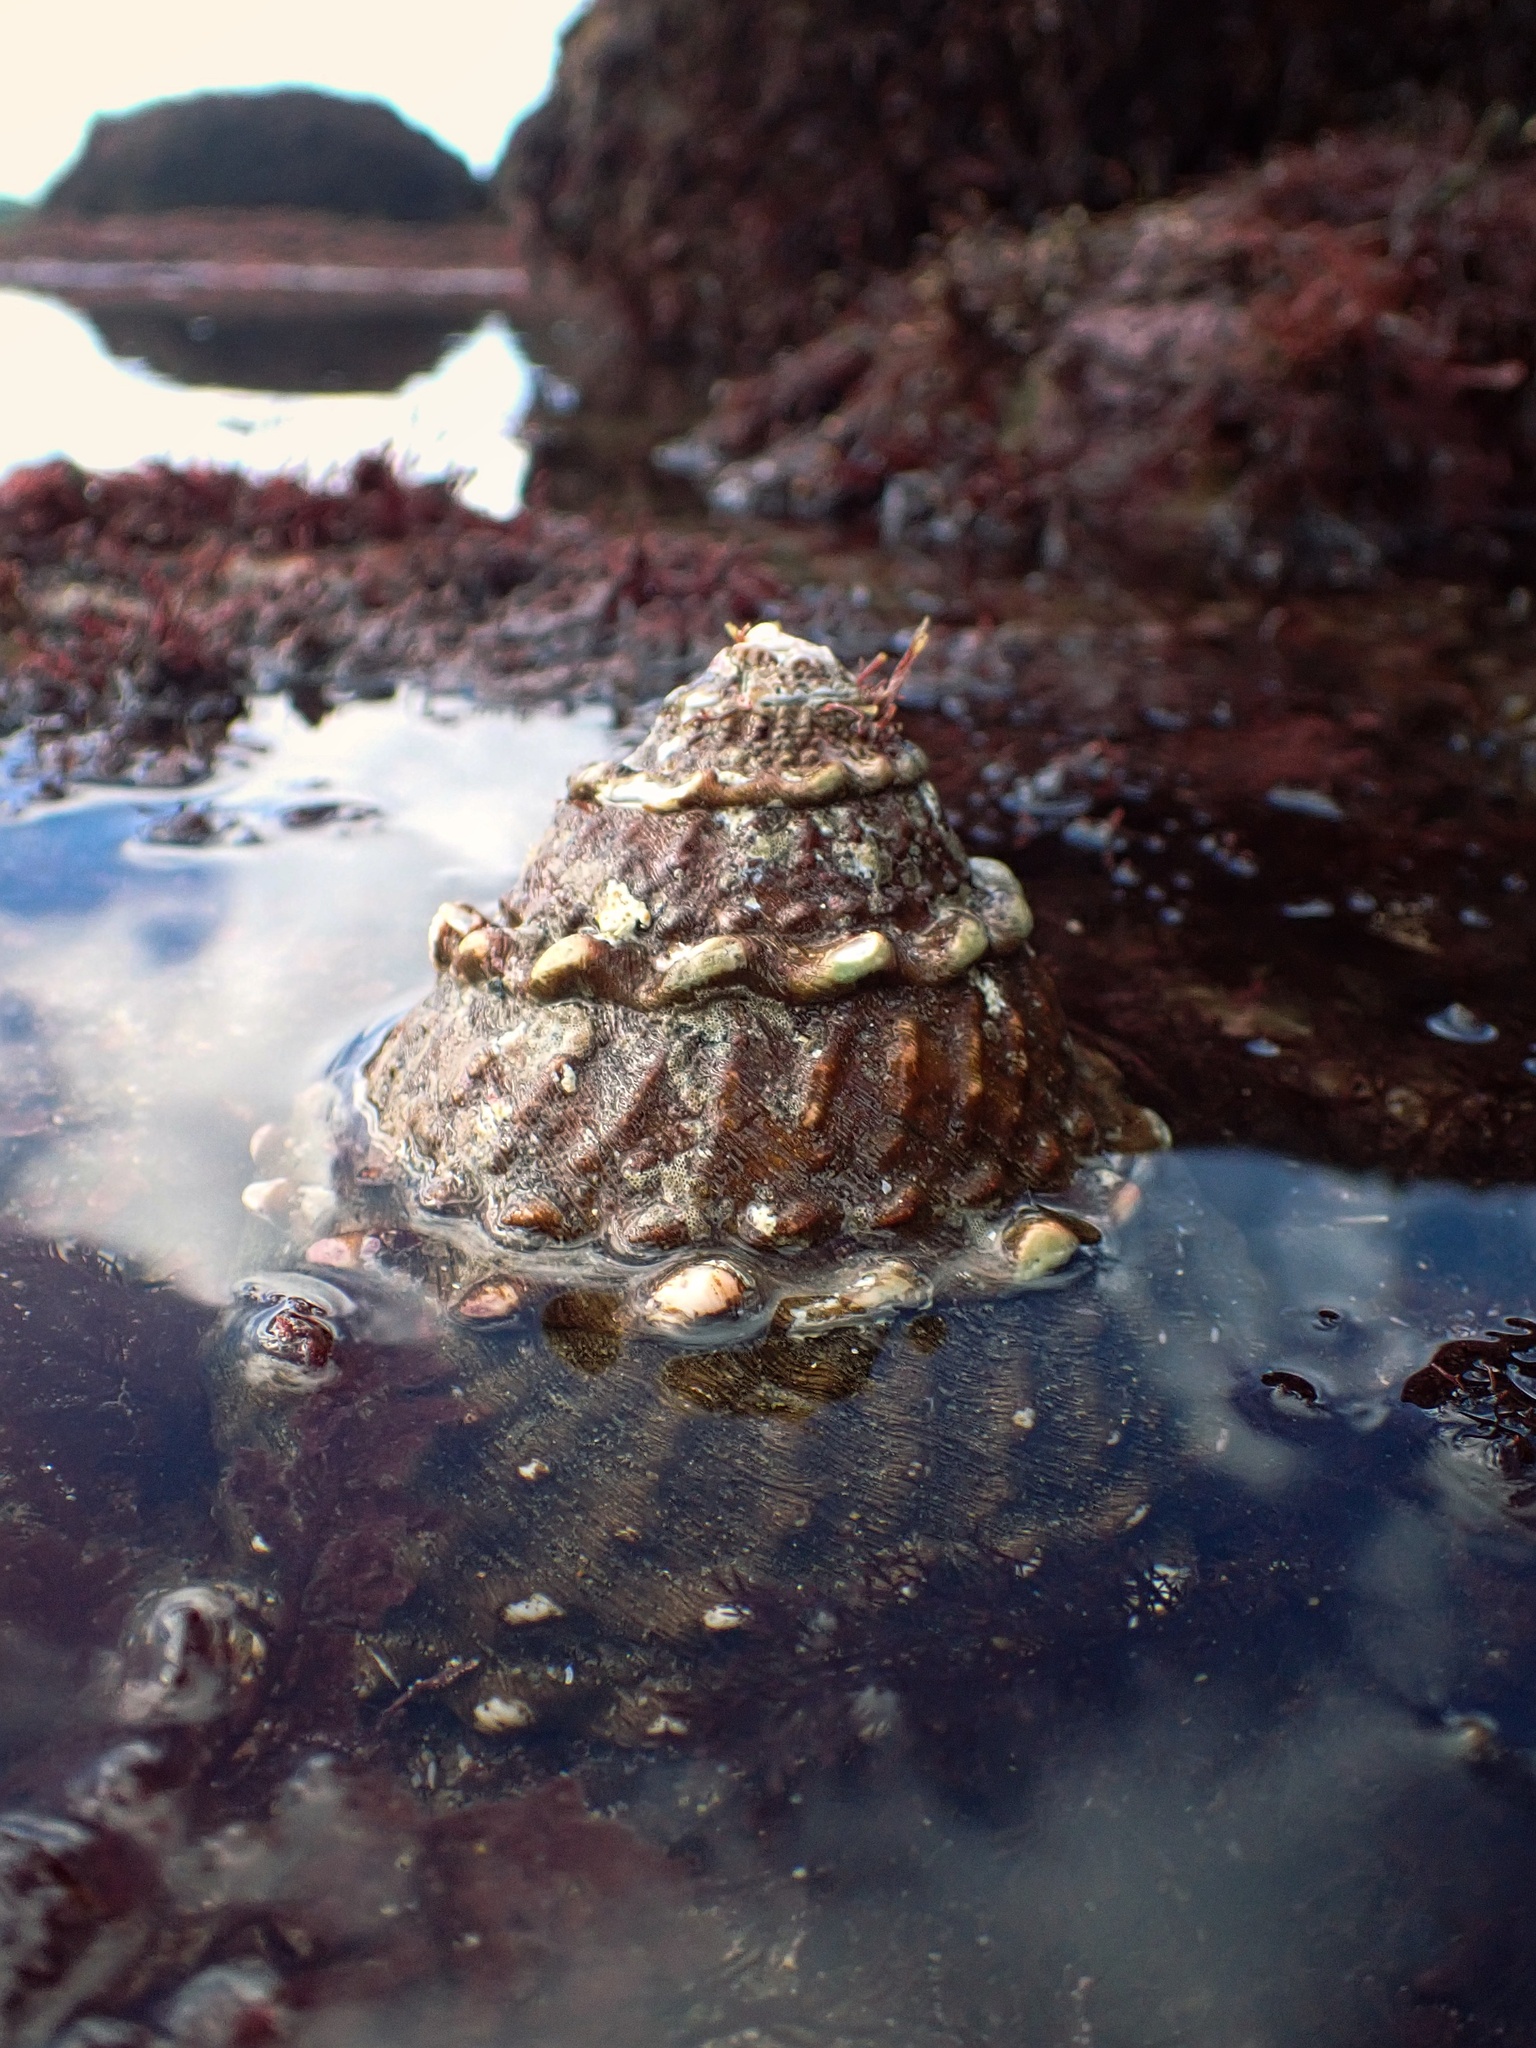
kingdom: Animalia
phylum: Mollusca
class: Gastropoda
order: Trochida
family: Turbinidae
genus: Megastraea
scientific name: Megastraea undosa
